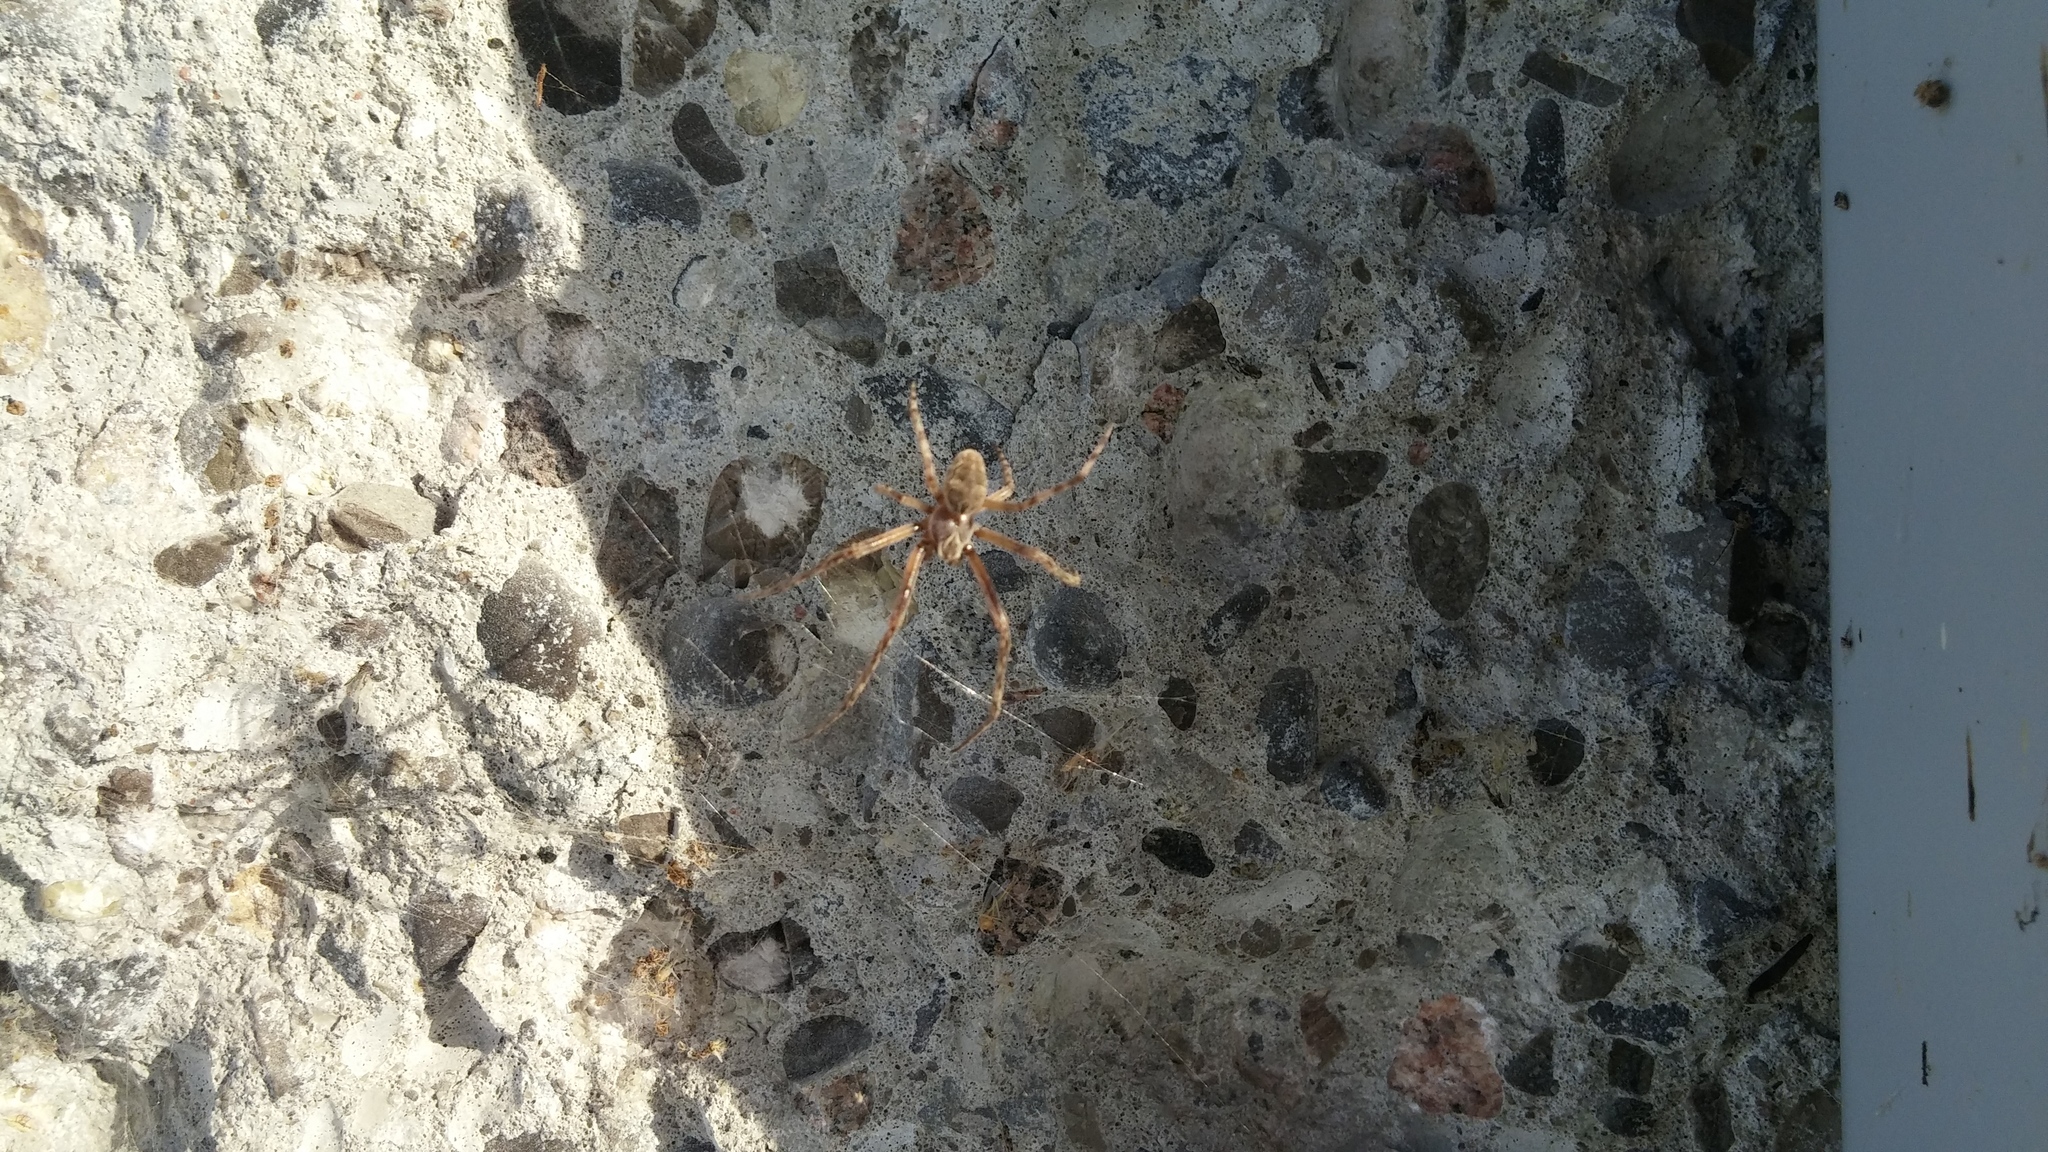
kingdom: Animalia
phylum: Arthropoda
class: Arachnida
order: Araneae
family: Araneidae
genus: Larinioides
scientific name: Larinioides sclopetarius
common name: Bridge orbweaver
